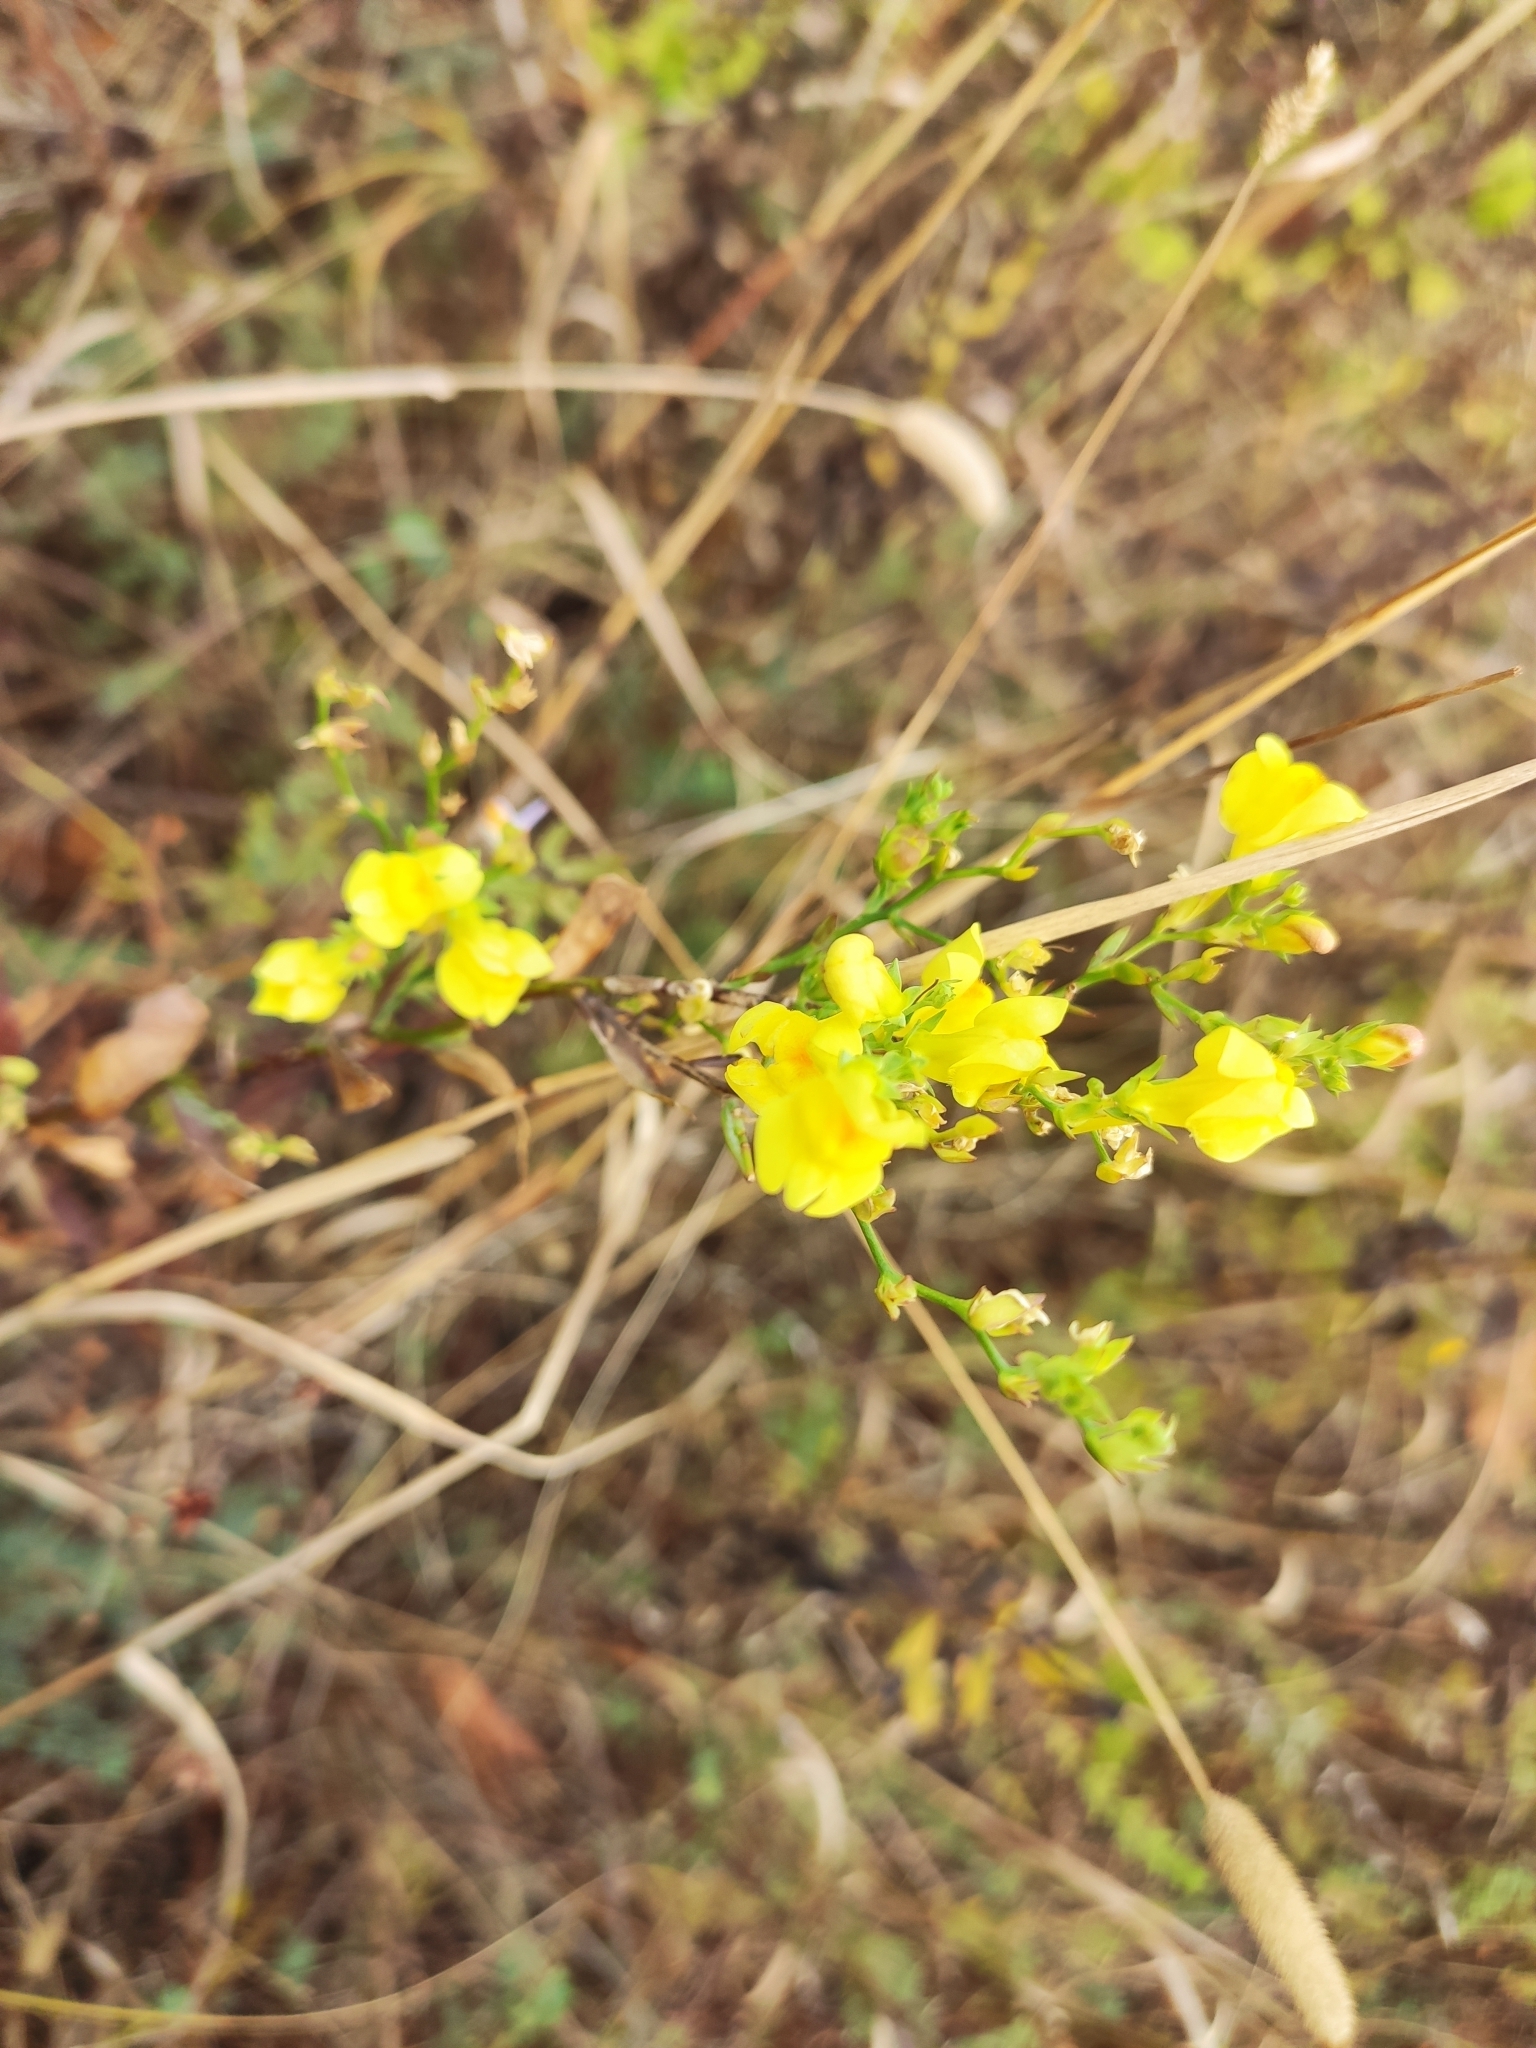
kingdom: Plantae
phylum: Tracheophyta
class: Magnoliopsida
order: Lamiales
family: Plantaginaceae
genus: Linaria
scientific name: Linaria genistifolia
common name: Broomleaf toadflax
